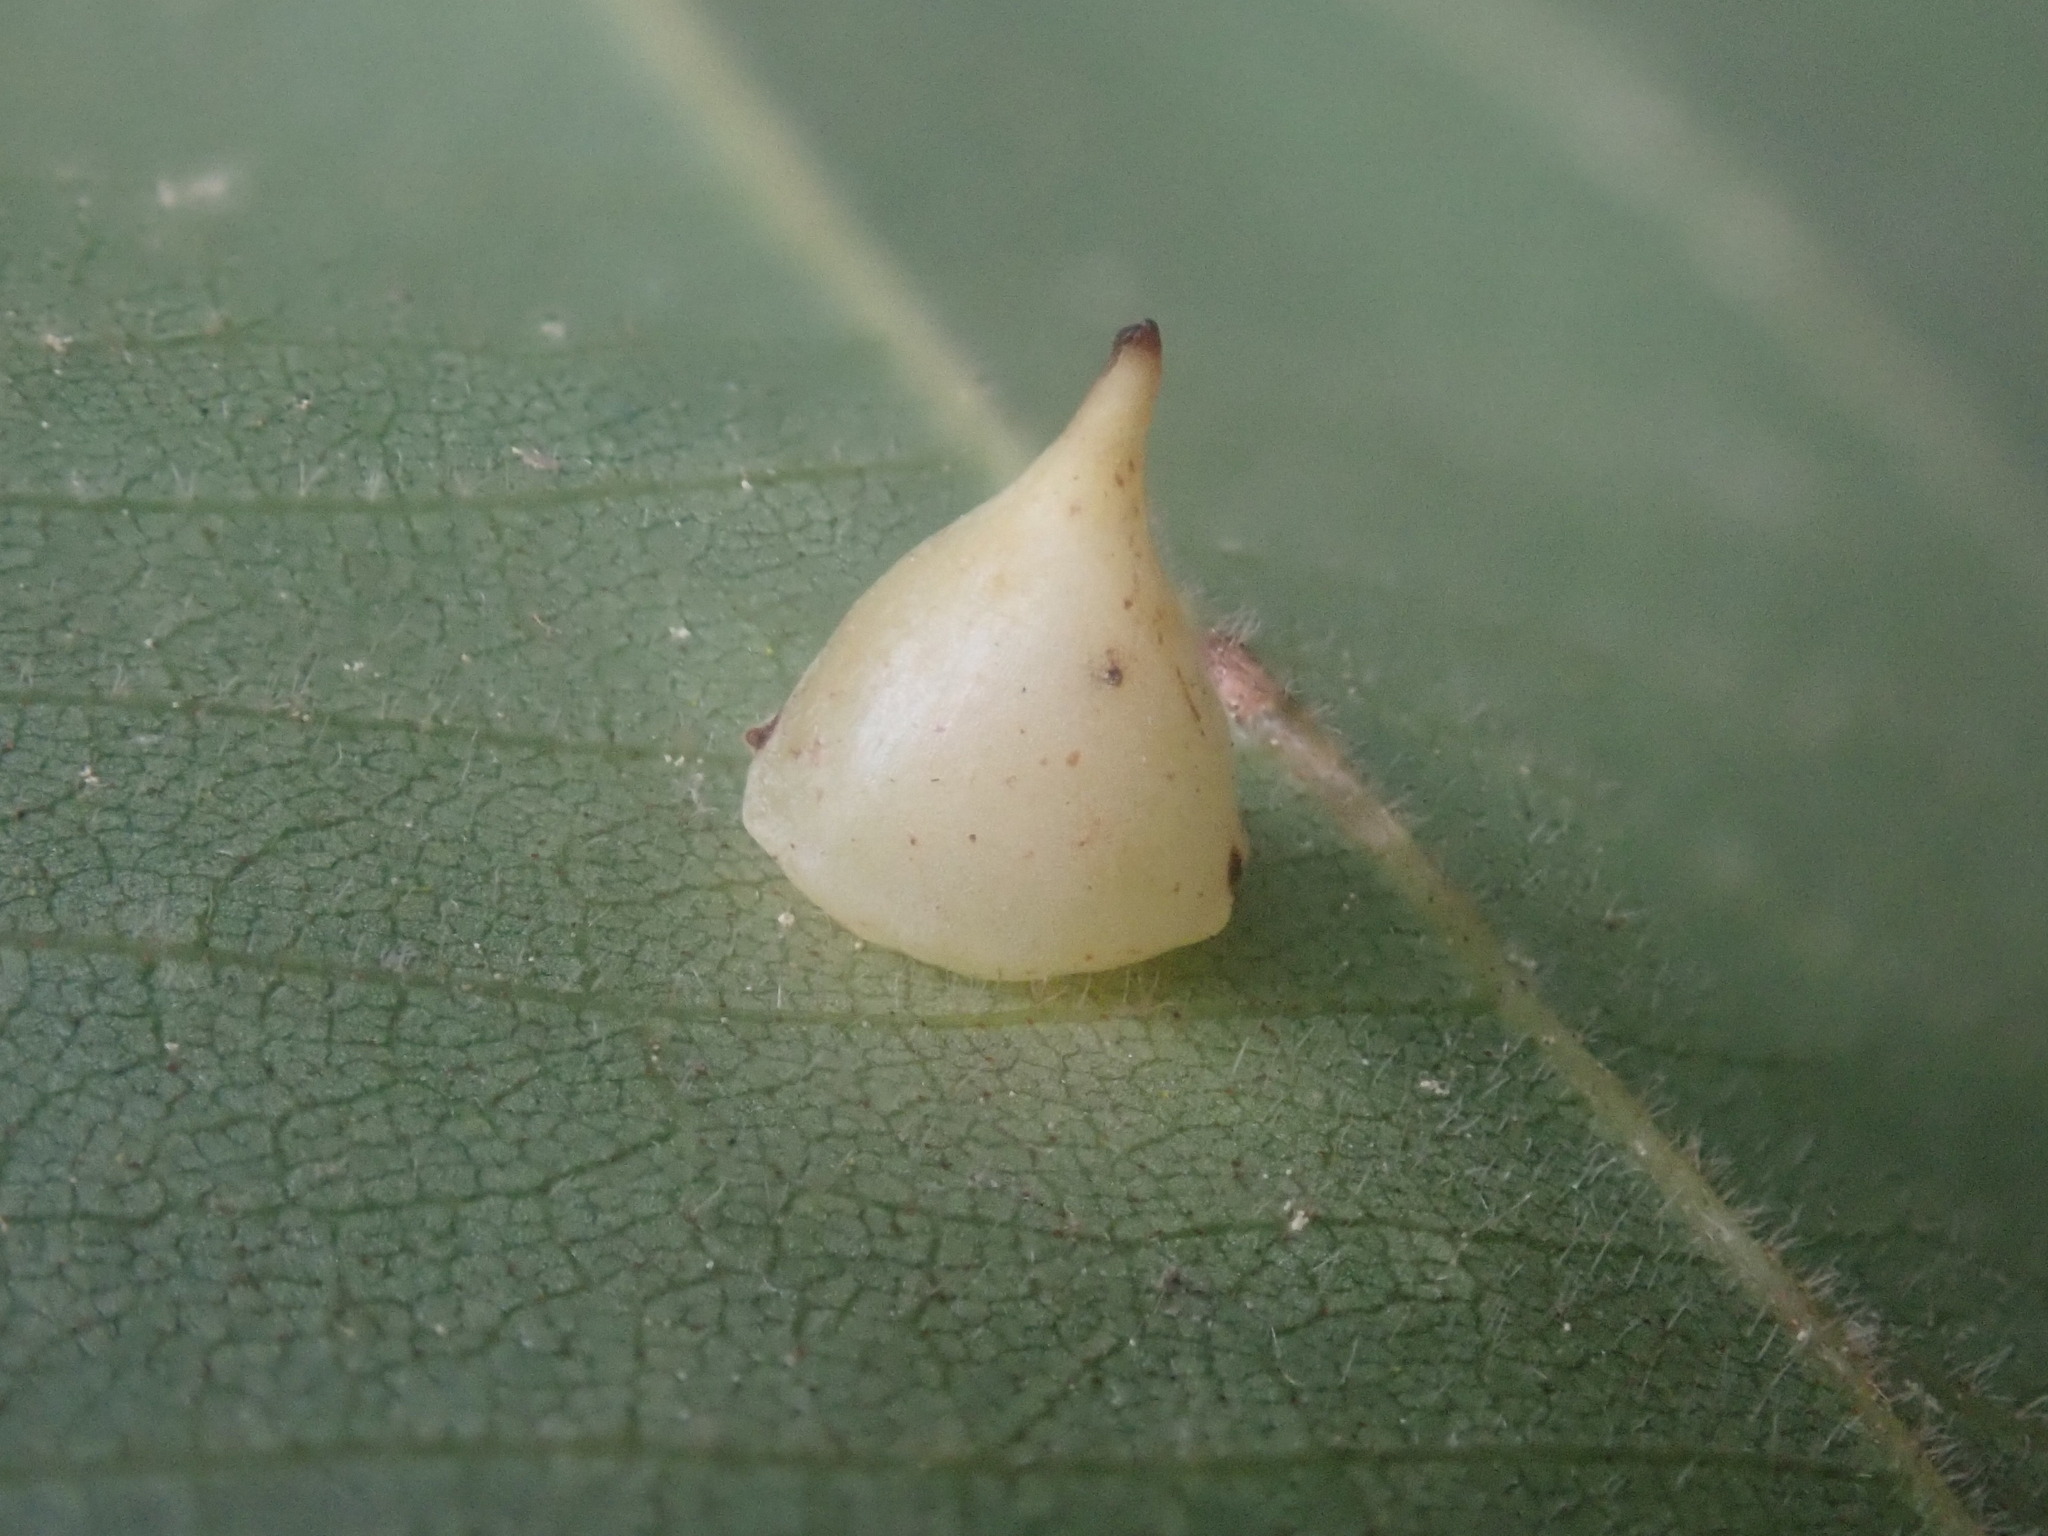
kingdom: Animalia
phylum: Arthropoda
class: Insecta
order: Diptera
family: Cecidomyiidae
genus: Caryomyia
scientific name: Caryomyia sanguinolenta
